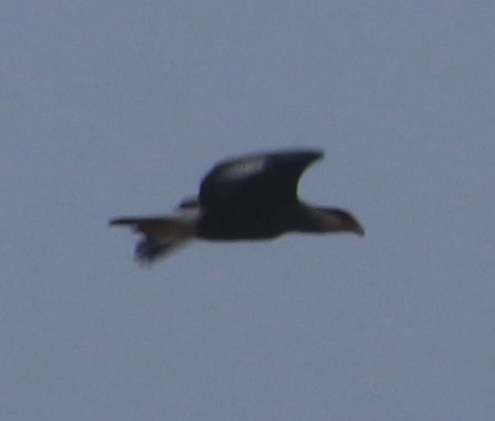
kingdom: Animalia
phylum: Chordata
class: Aves
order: Falconiformes
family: Falconidae
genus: Caracara
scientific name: Caracara plancus
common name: Southern caracara
